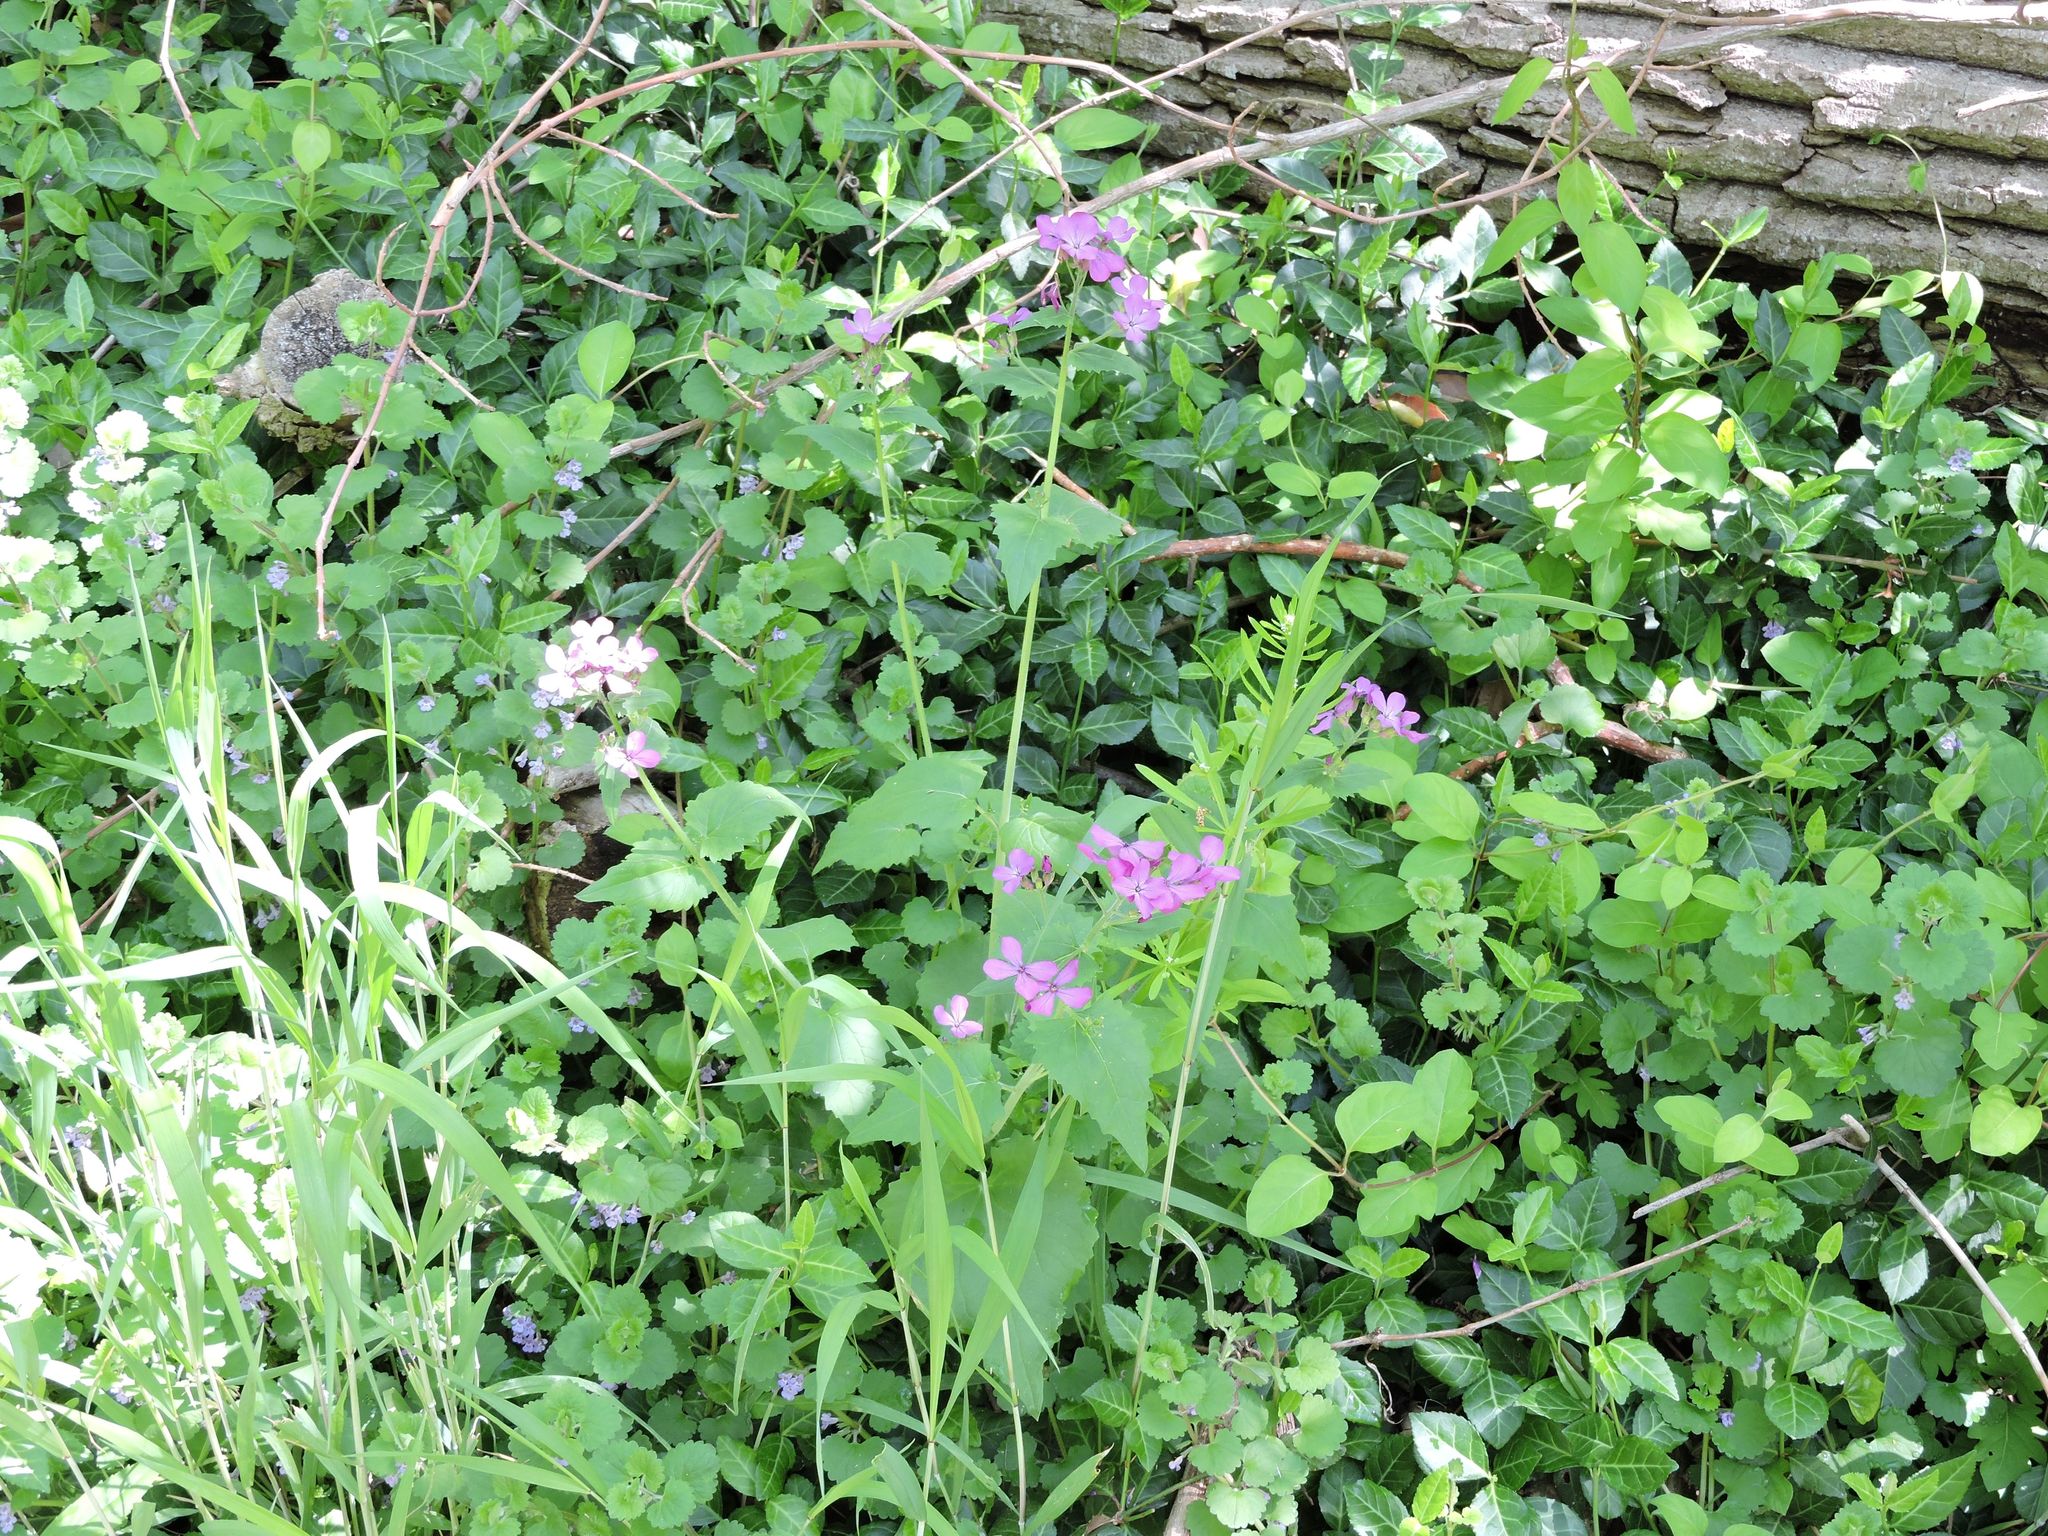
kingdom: Plantae
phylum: Tracheophyta
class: Magnoliopsida
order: Brassicales
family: Brassicaceae
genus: Lunaria
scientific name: Lunaria annua
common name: Honesty
